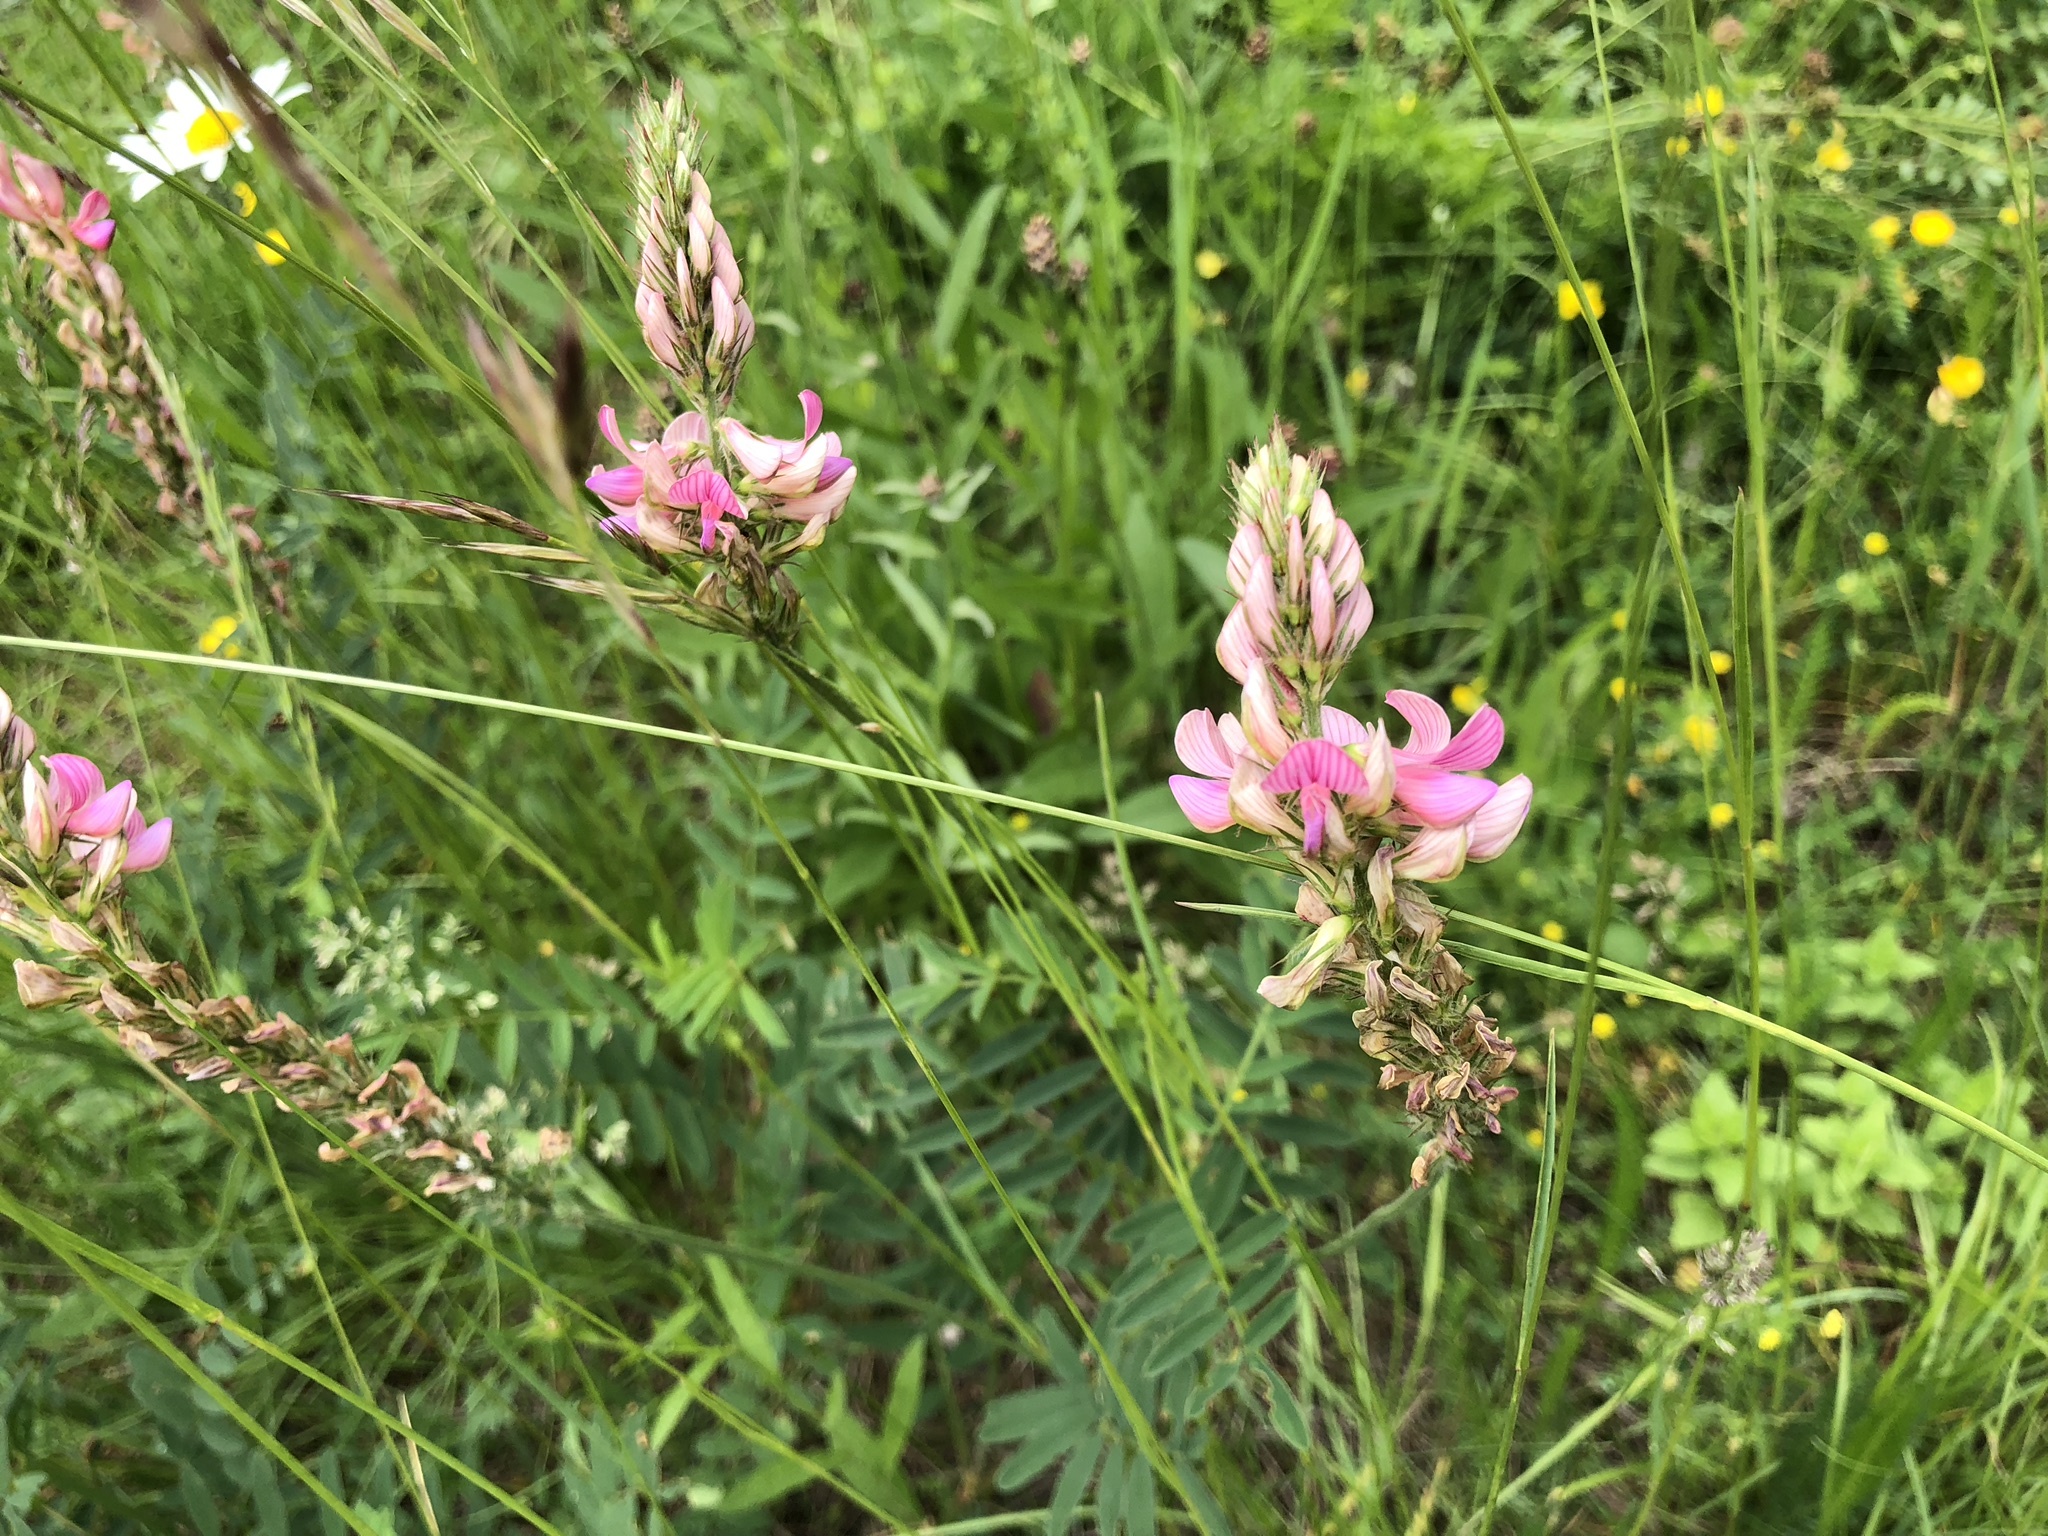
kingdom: Plantae
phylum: Tracheophyta
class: Magnoliopsida
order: Fabales
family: Fabaceae
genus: Onobrychis
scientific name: Onobrychis viciifolia
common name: Sainfoin
